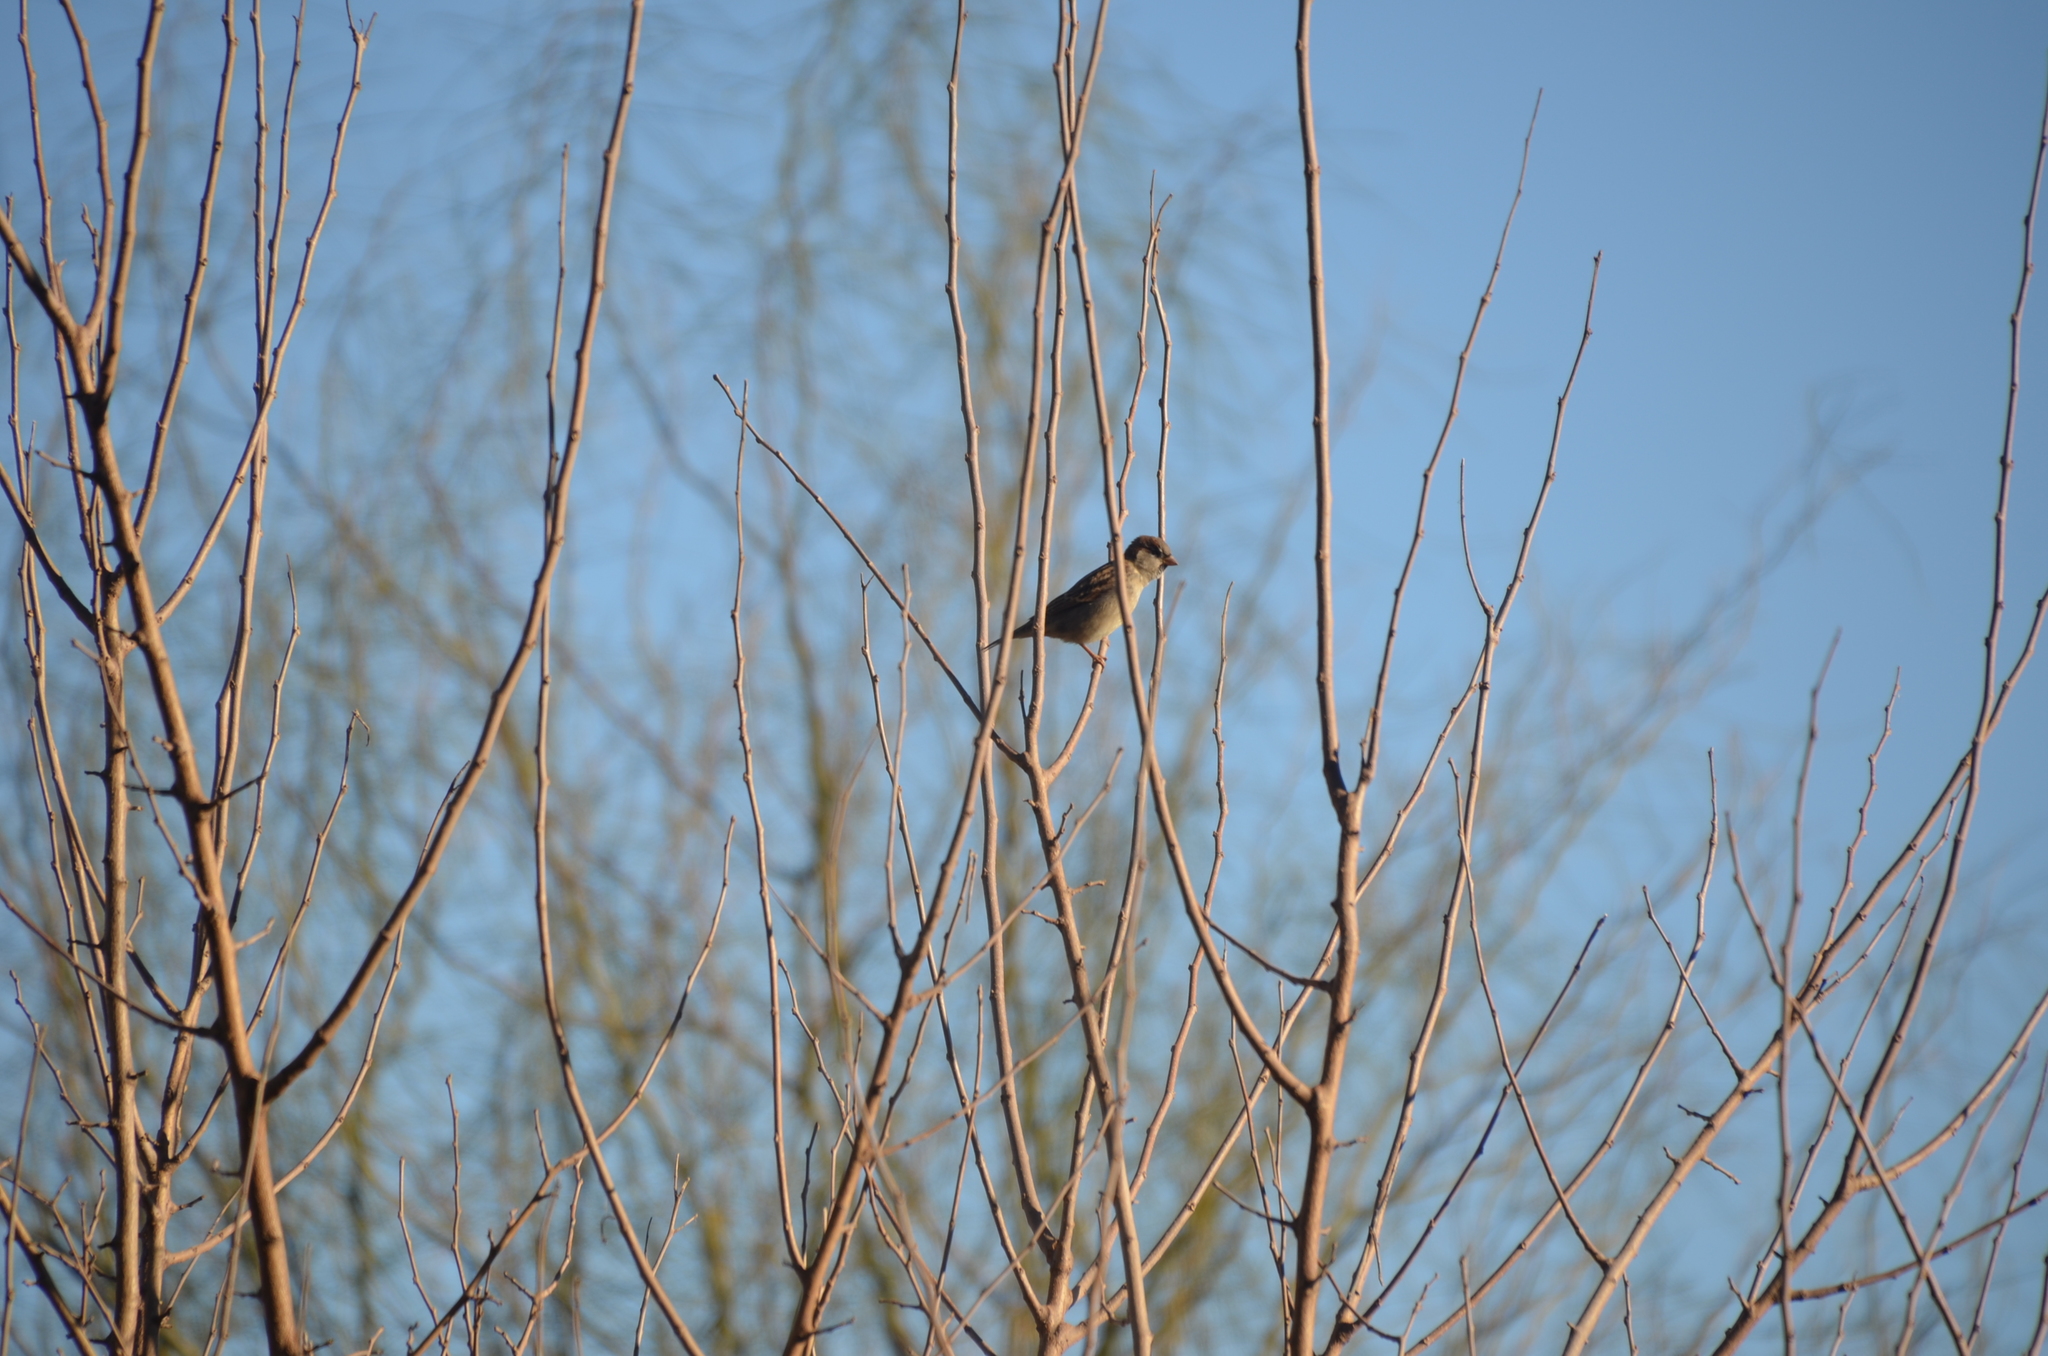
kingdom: Animalia
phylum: Chordata
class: Aves
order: Passeriformes
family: Passeridae
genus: Passer
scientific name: Passer domesticus
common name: House sparrow
